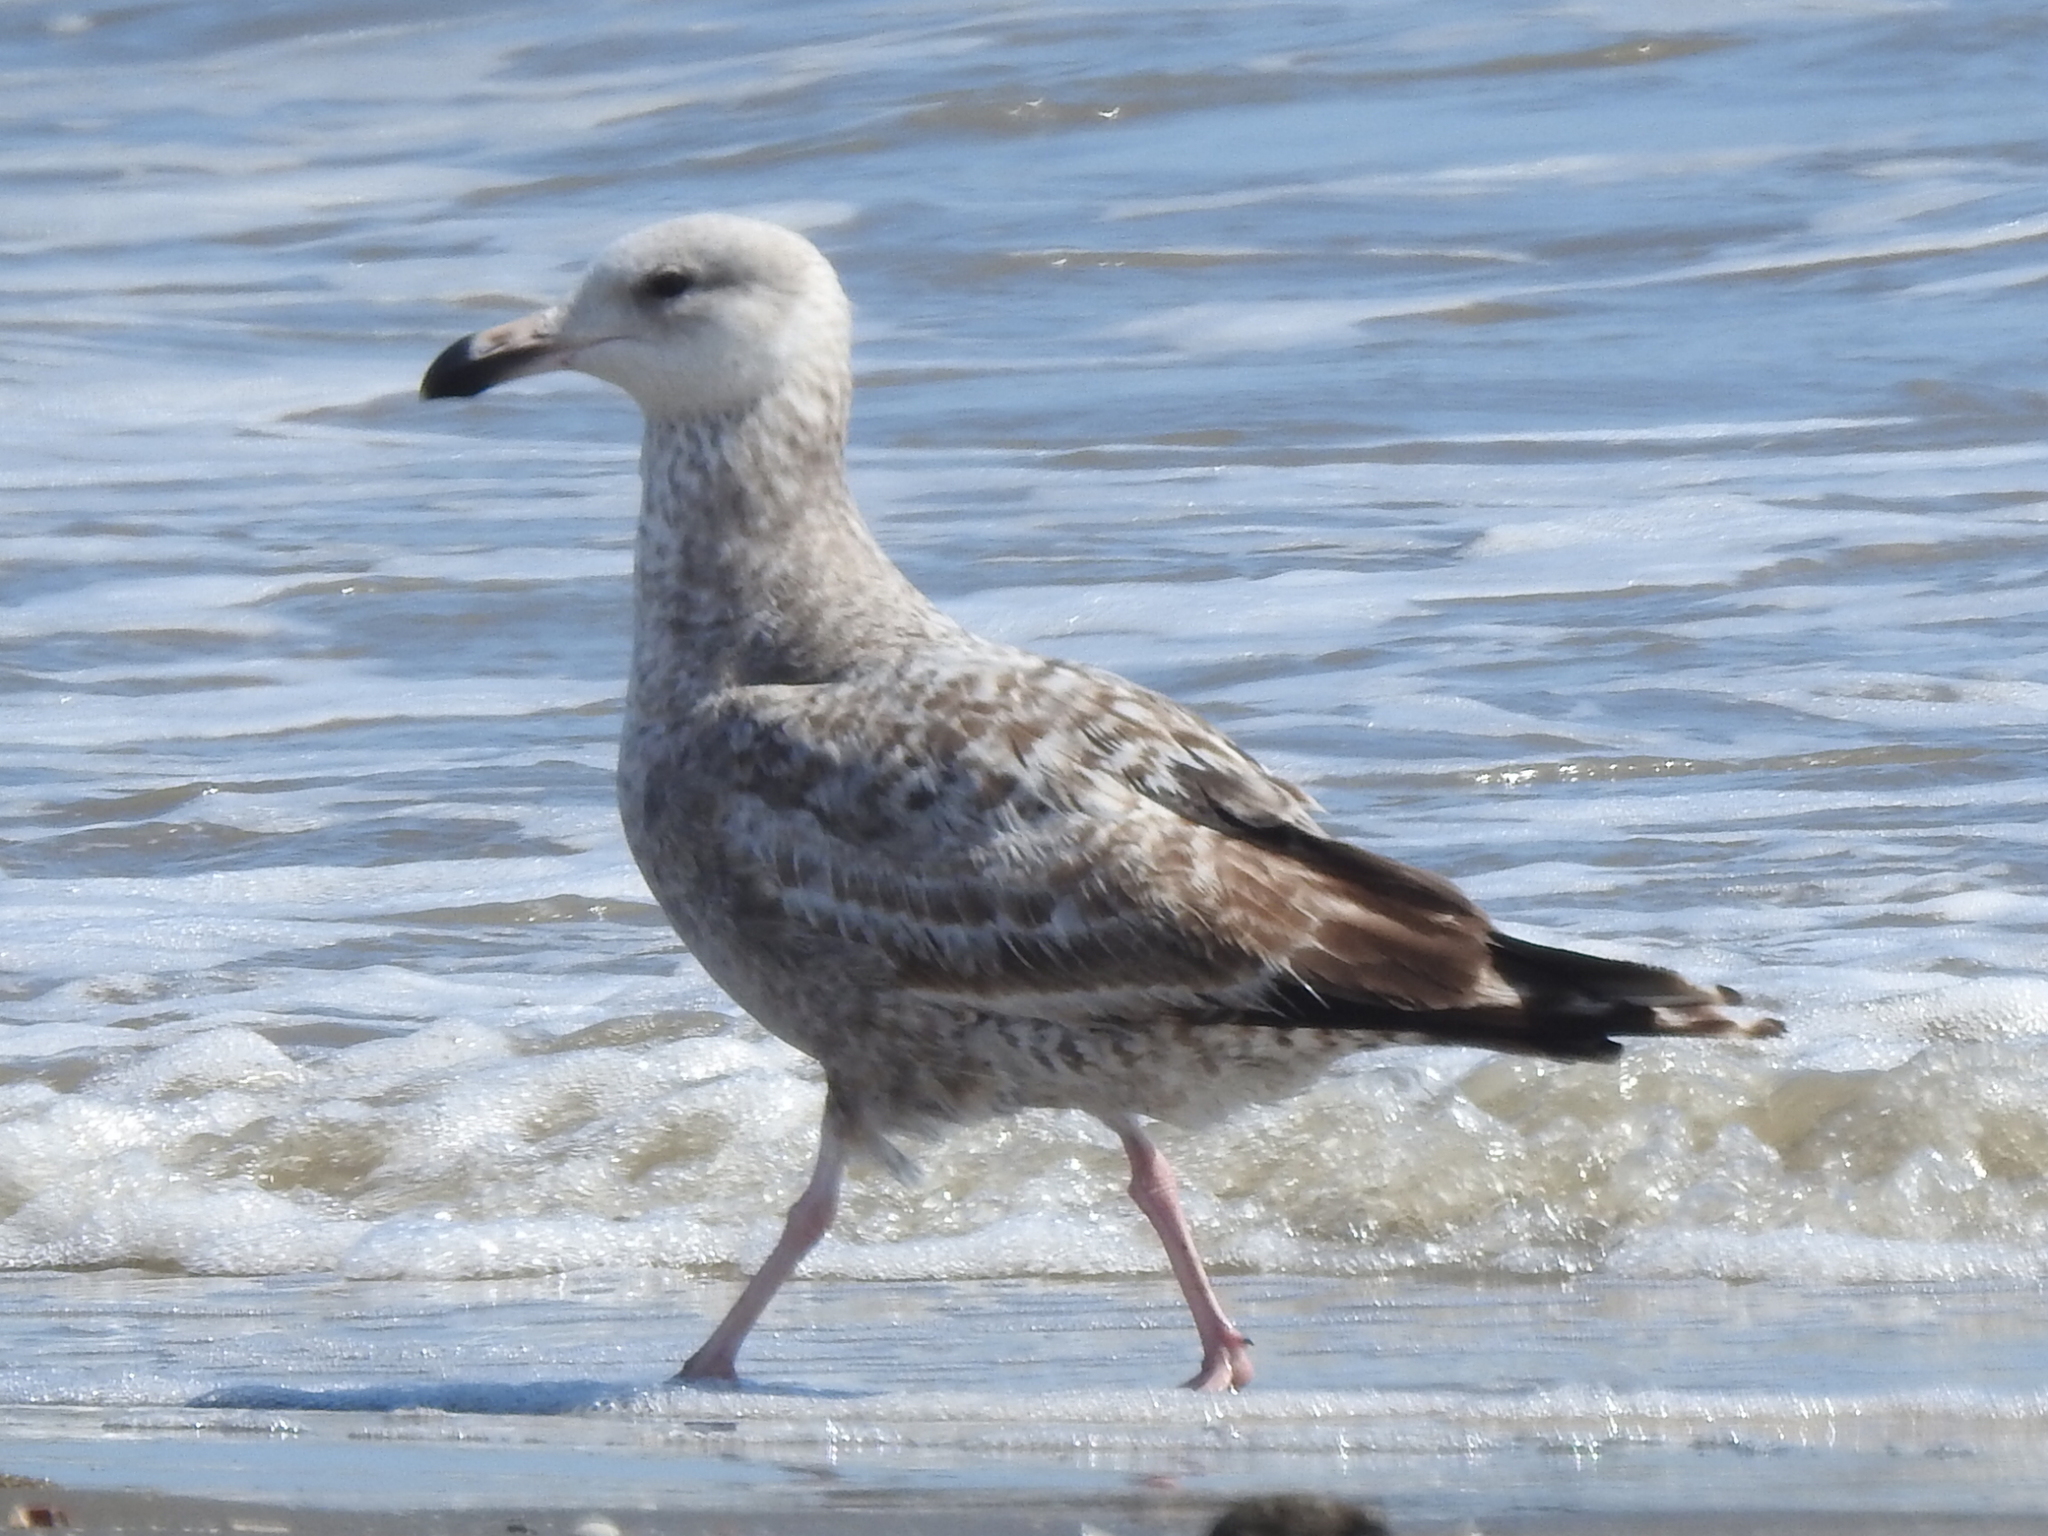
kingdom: Animalia
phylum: Chordata
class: Aves
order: Charadriiformes
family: Laridae
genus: Larus
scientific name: Larus argentatus
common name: Herring gull
